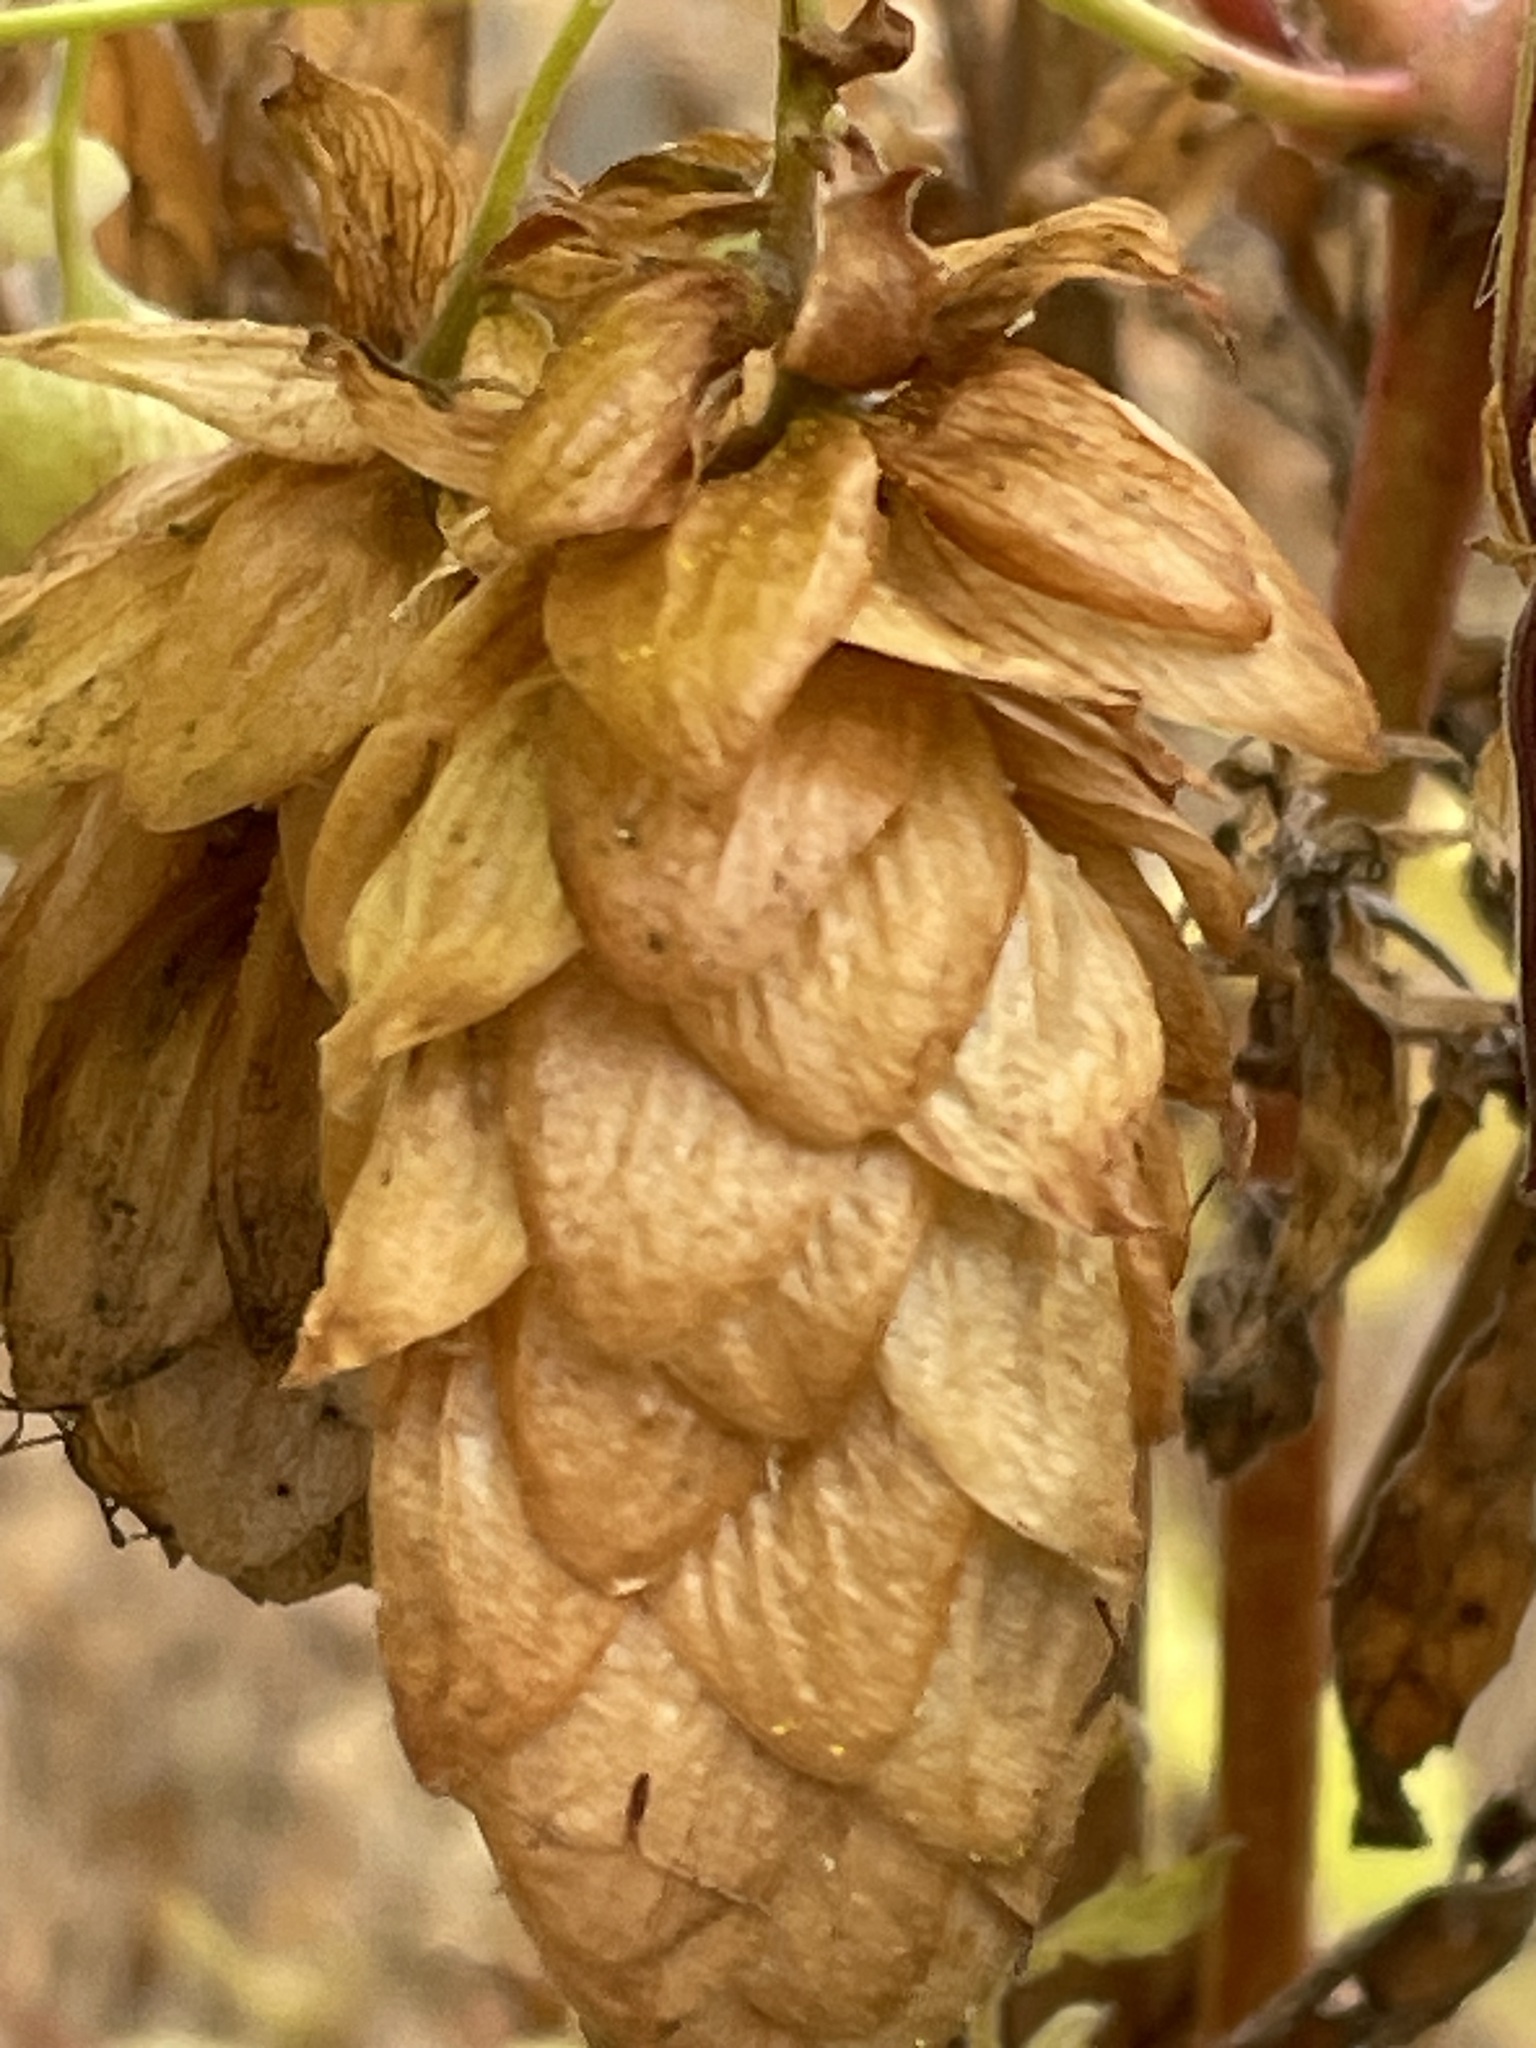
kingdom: Plantae
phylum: Tracheophyta
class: Magnoliopsida
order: Rosales
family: Cannabaceae
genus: Humulus
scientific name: Humulus lupulus
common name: Hop
